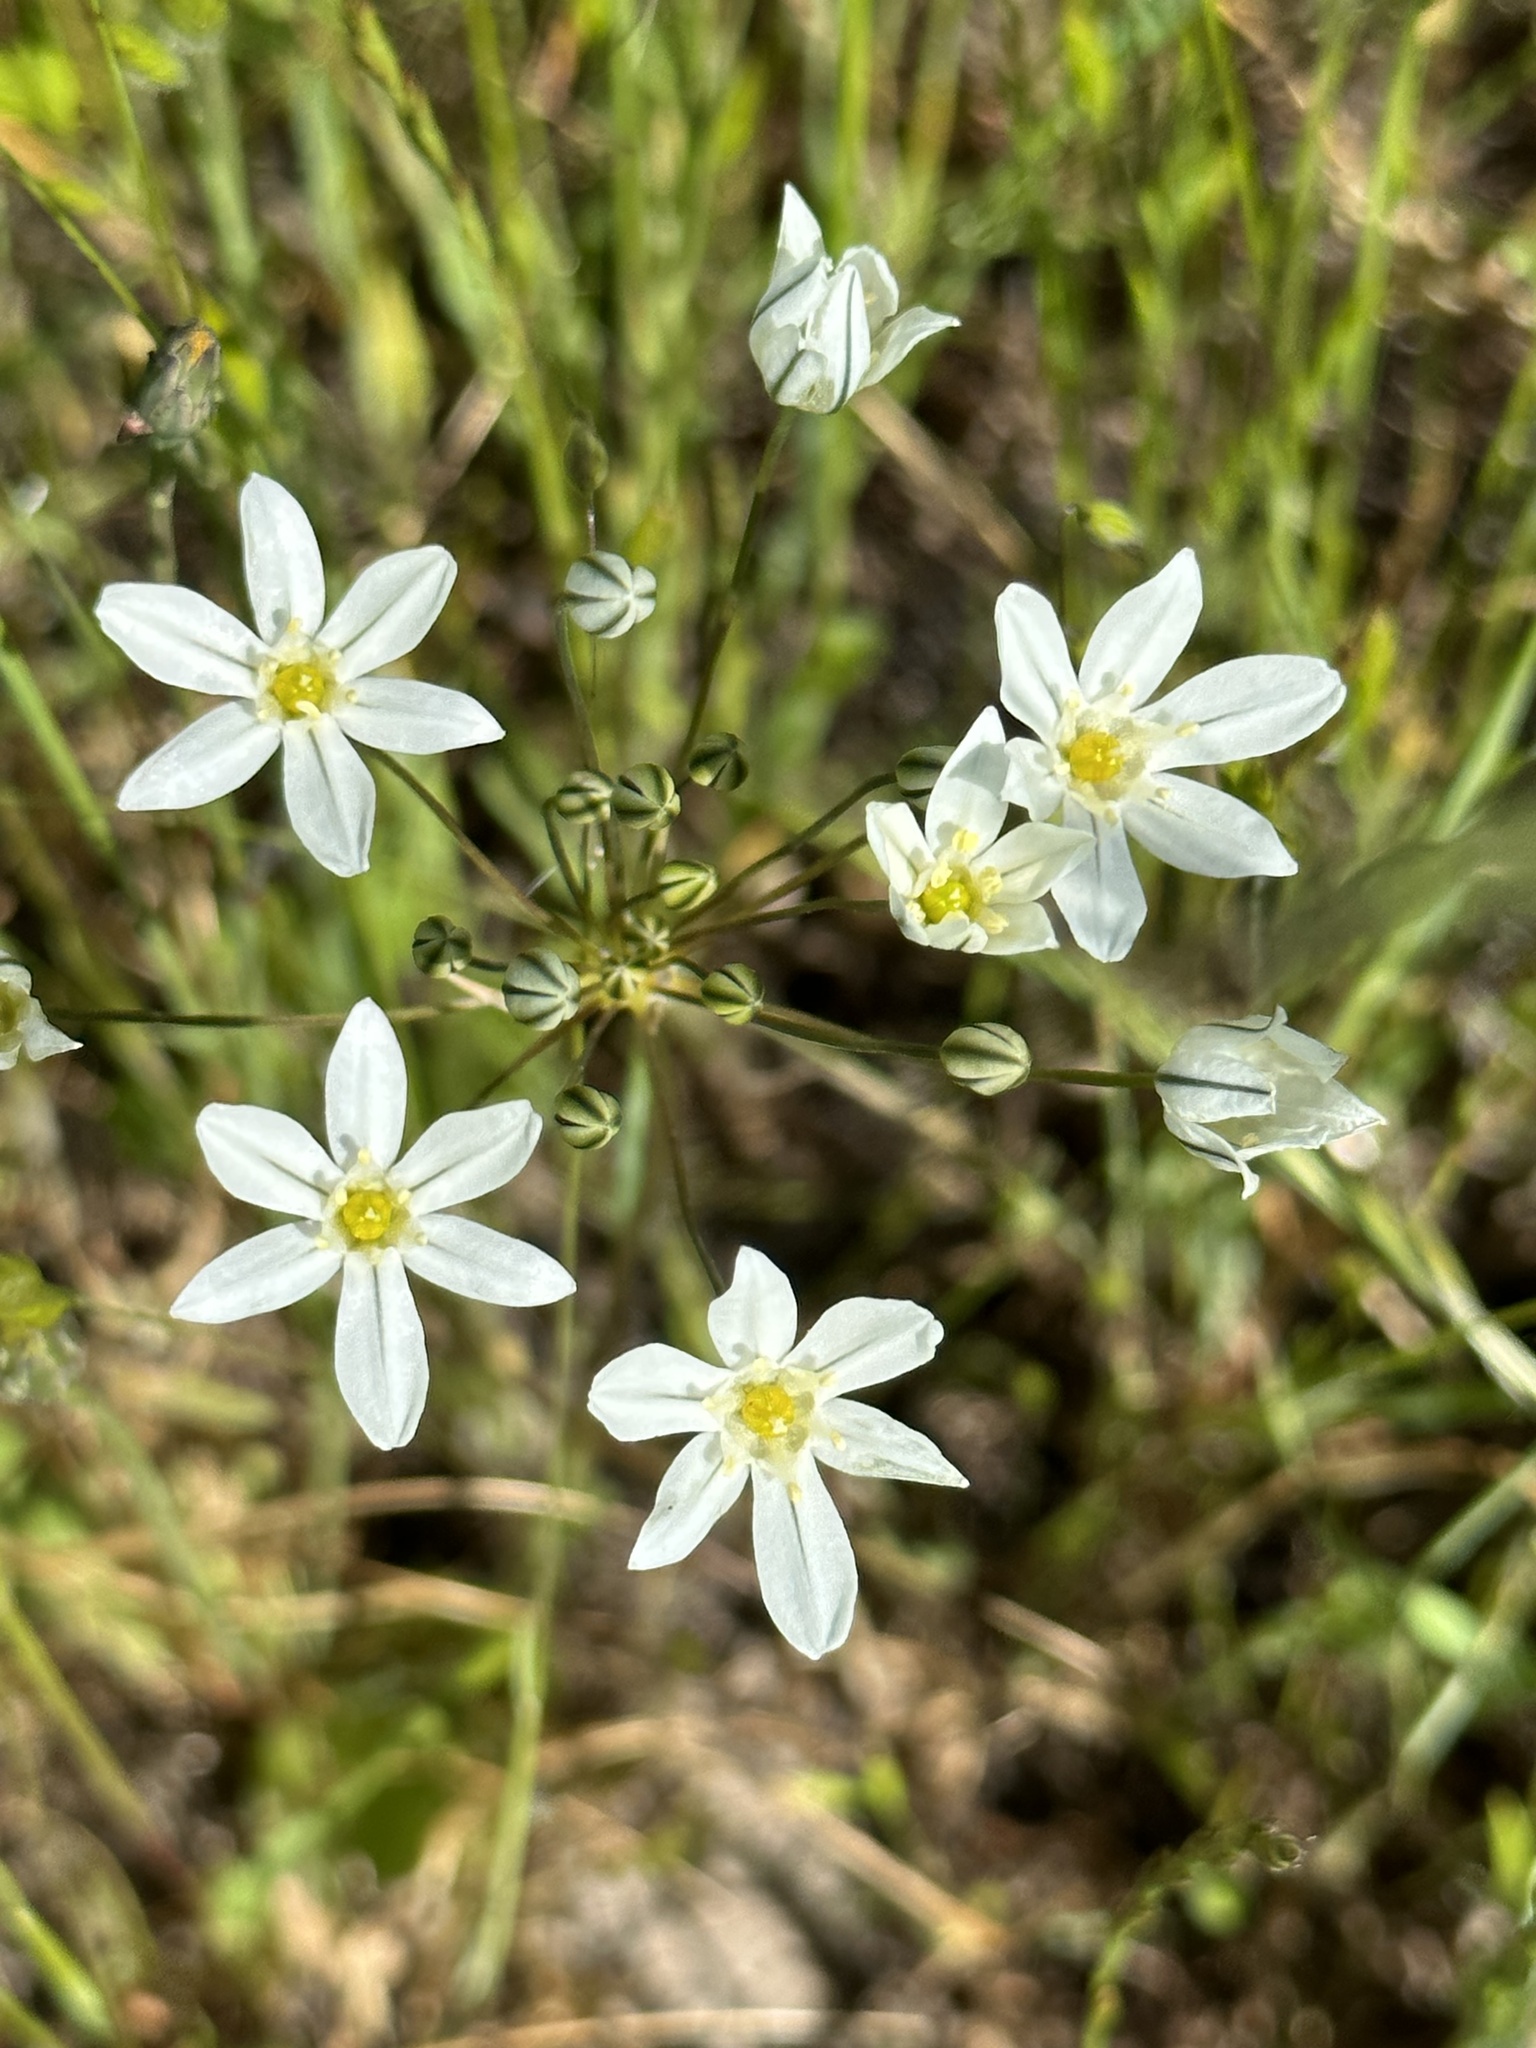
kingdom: Plantae
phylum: Tracheophyta
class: Liliopsida
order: Asparagales
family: Asparagaceae
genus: Triteleia
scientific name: Triteleia hyacinthina
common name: White brodiaea
